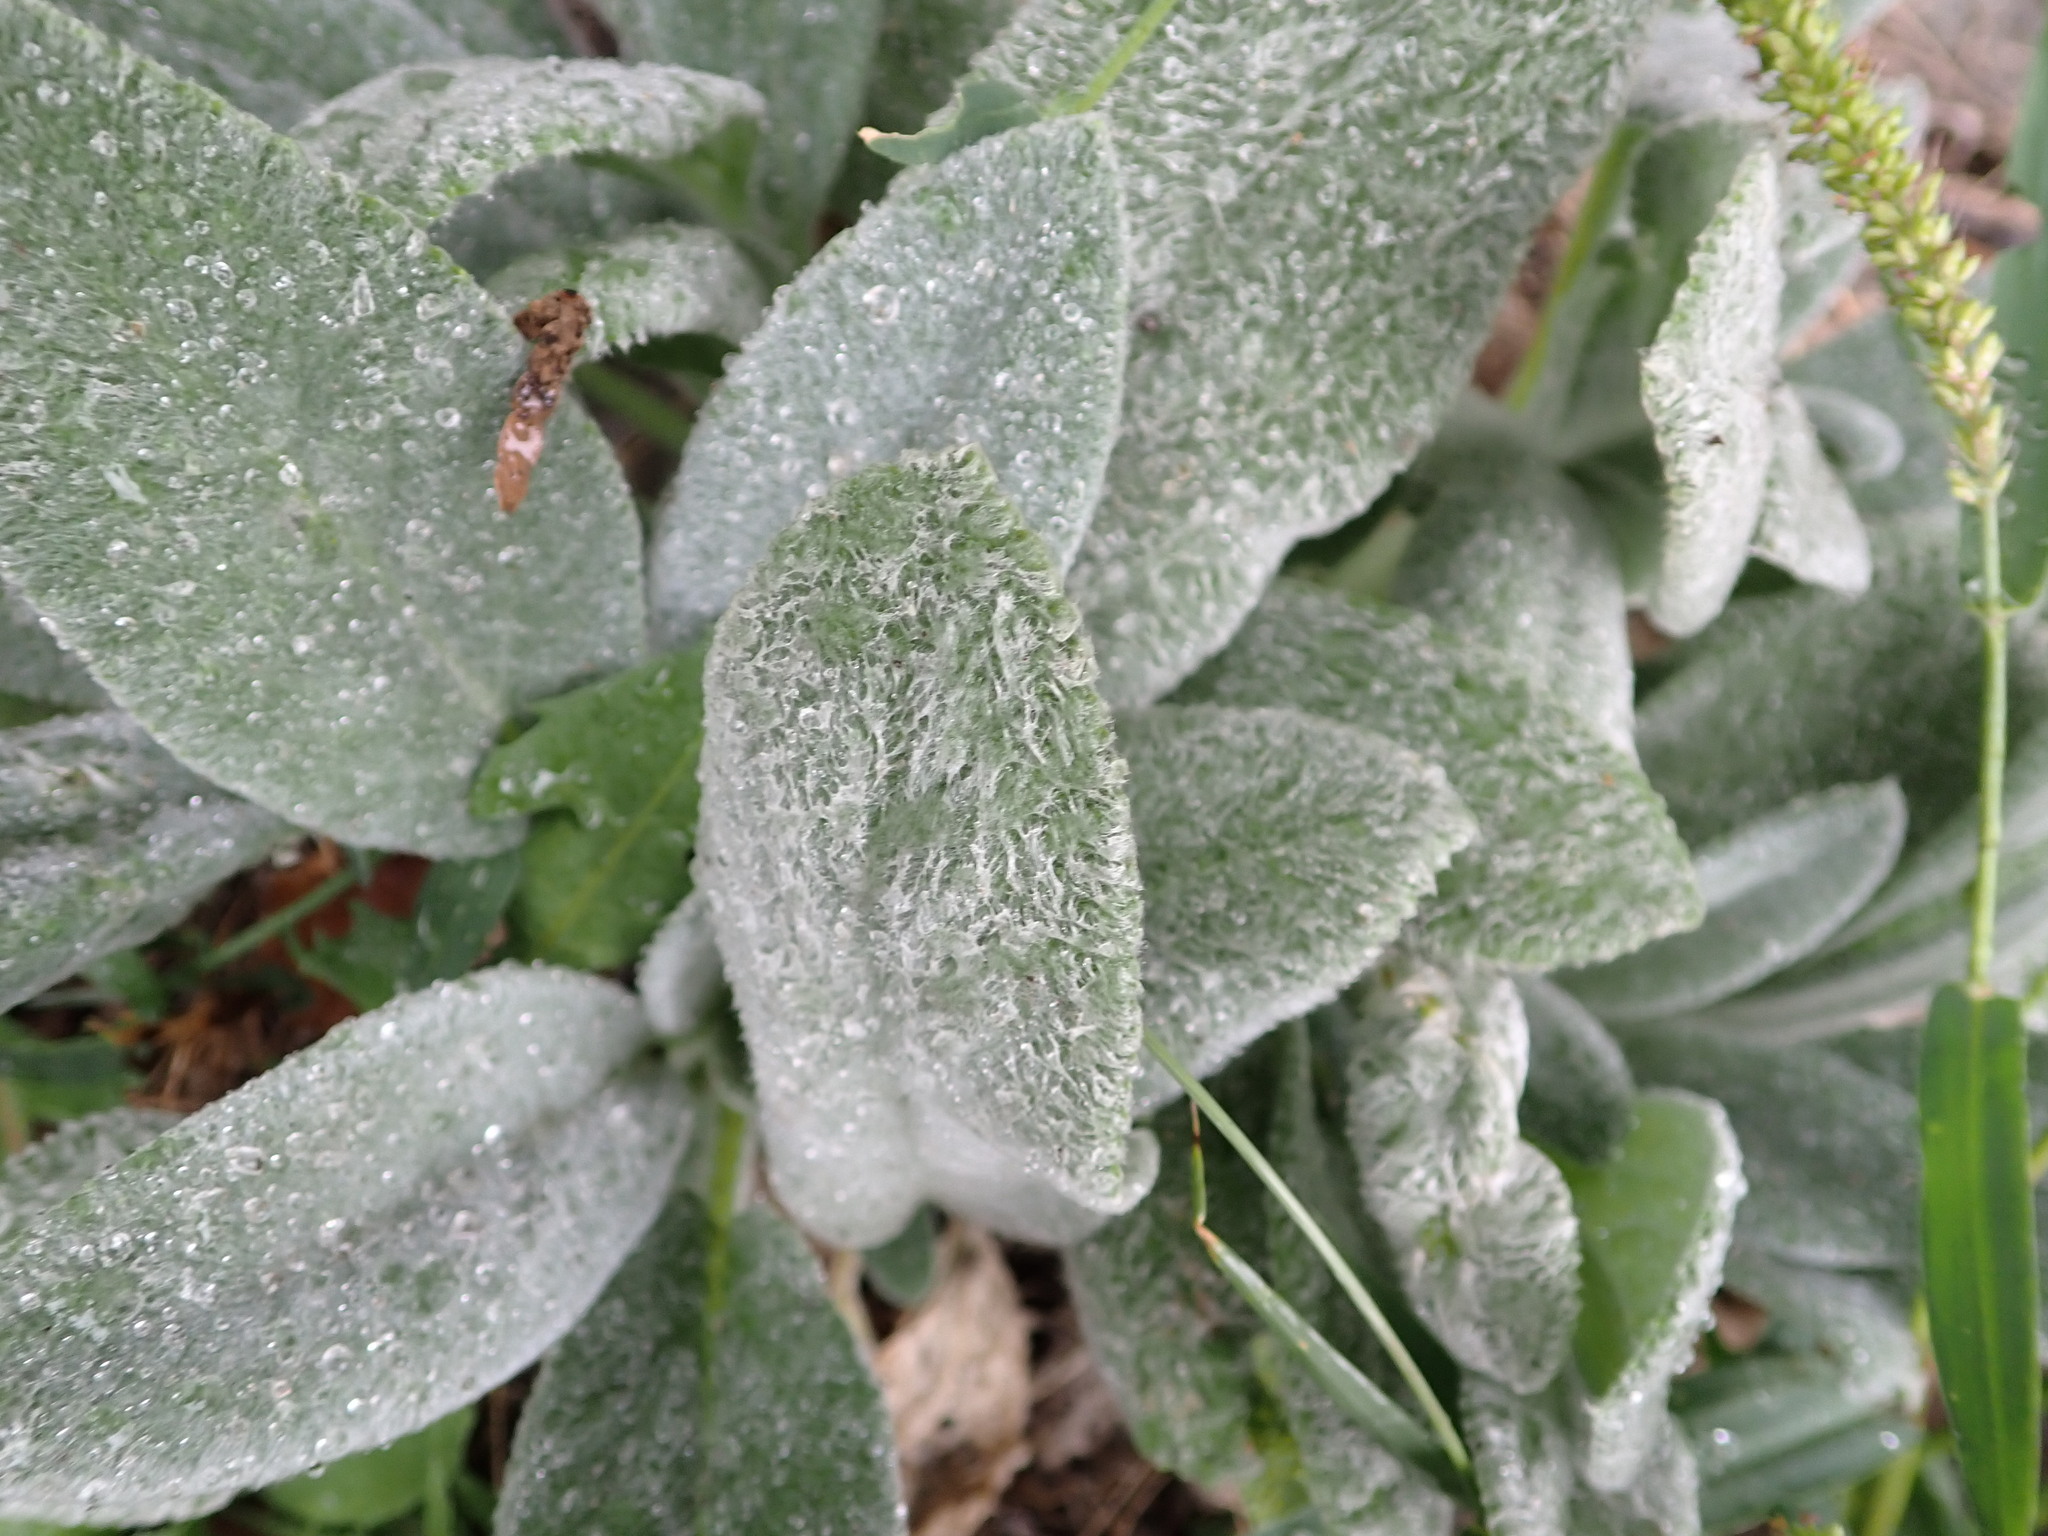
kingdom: Plantae
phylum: Tracheophyta
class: Magnoliopsida
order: Lamiales
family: Lamiaceae
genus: Stachys
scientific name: Stachys byzantina
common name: Lamb's-ear
